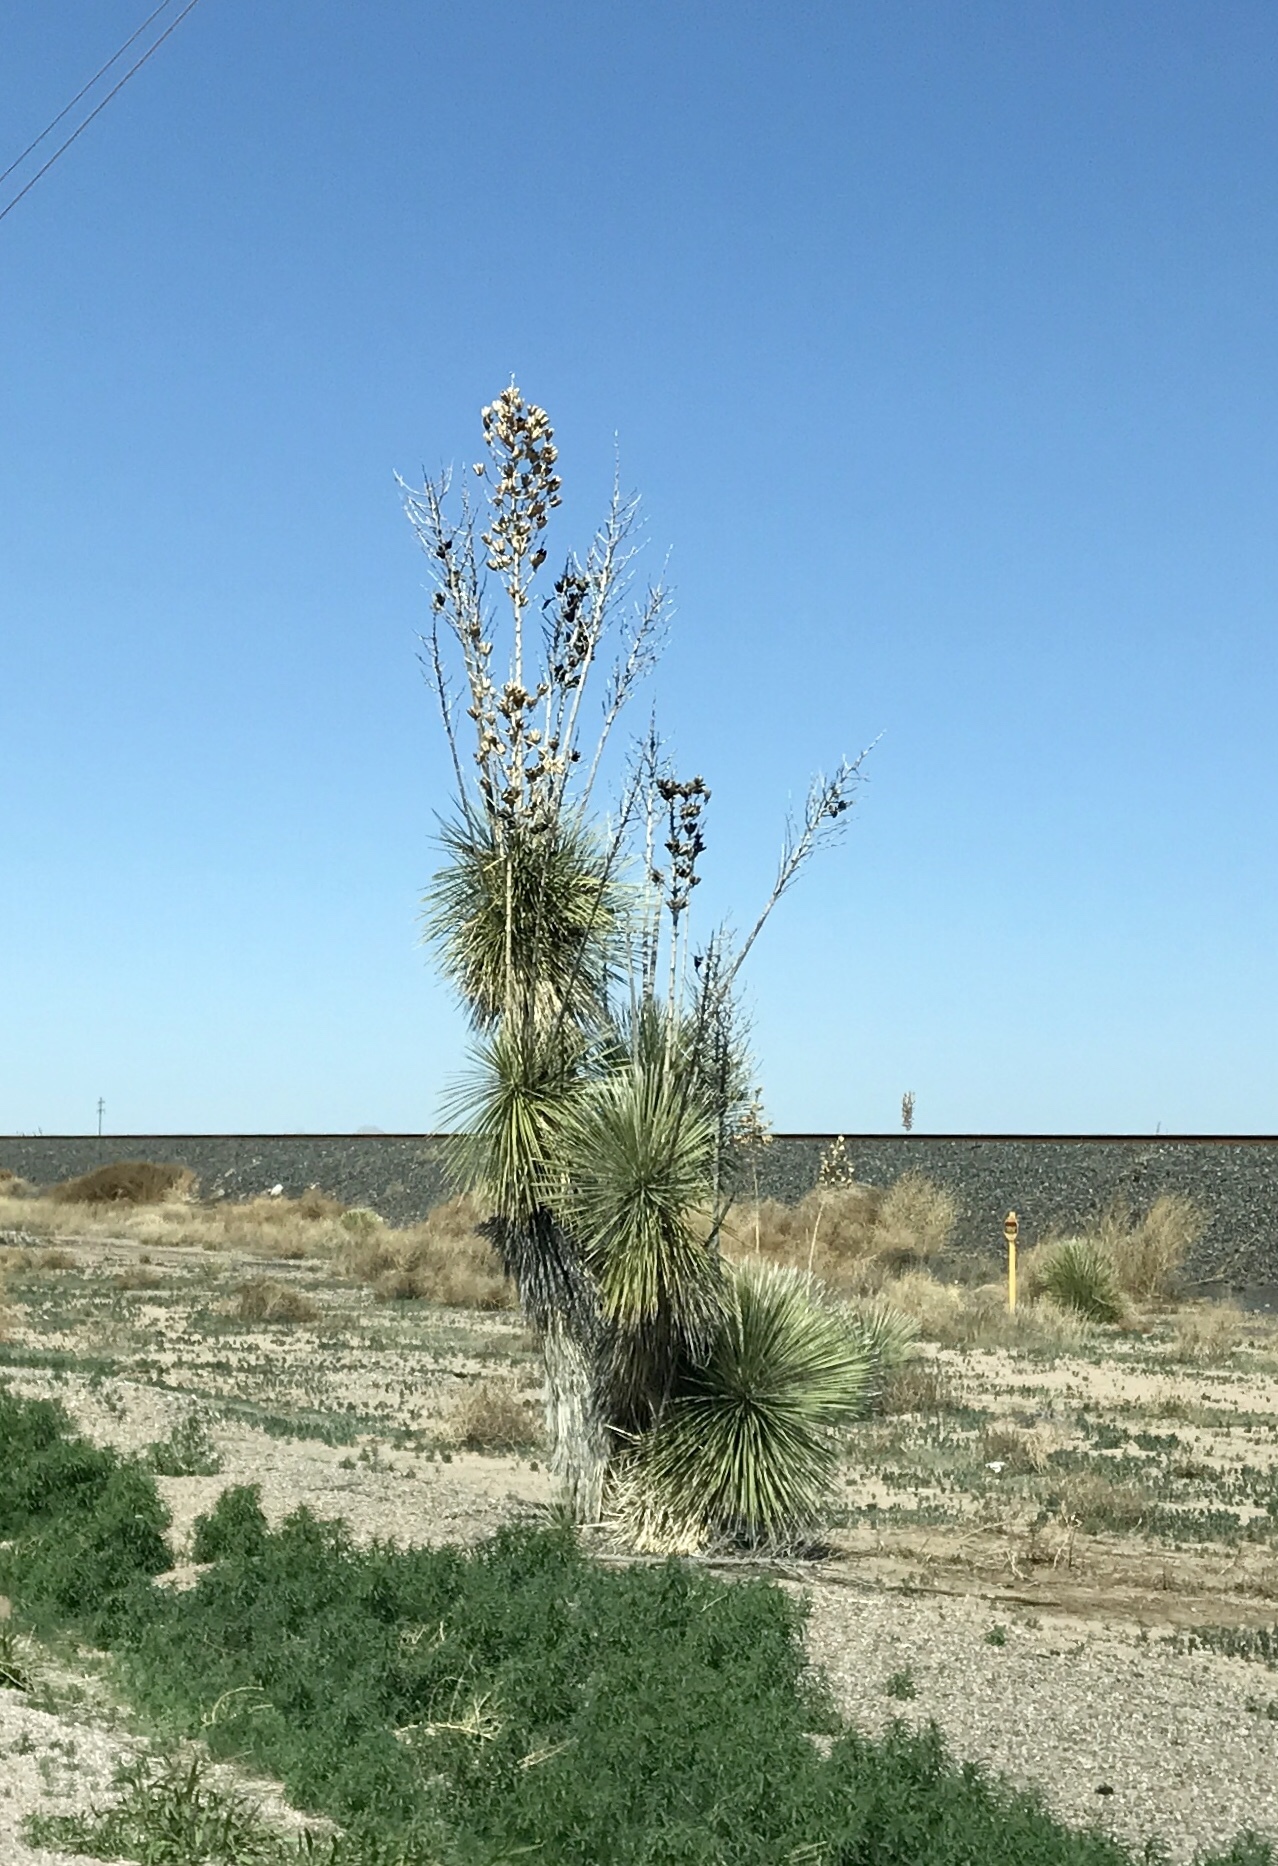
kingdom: Plantae
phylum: Tracheophyta
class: Liliopsida
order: Asparagales
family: Asparagaceae
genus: Yucca
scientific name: Yucca elata
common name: Palmella
